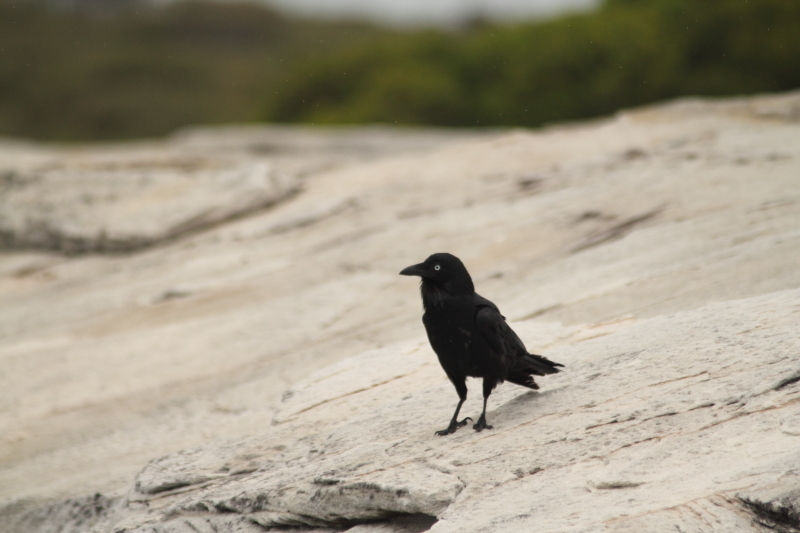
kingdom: Animalia
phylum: Chordata
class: Aves
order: Passeriformes
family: Corvidae
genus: Corvus
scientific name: Corvus coronoides
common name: Australian raven
